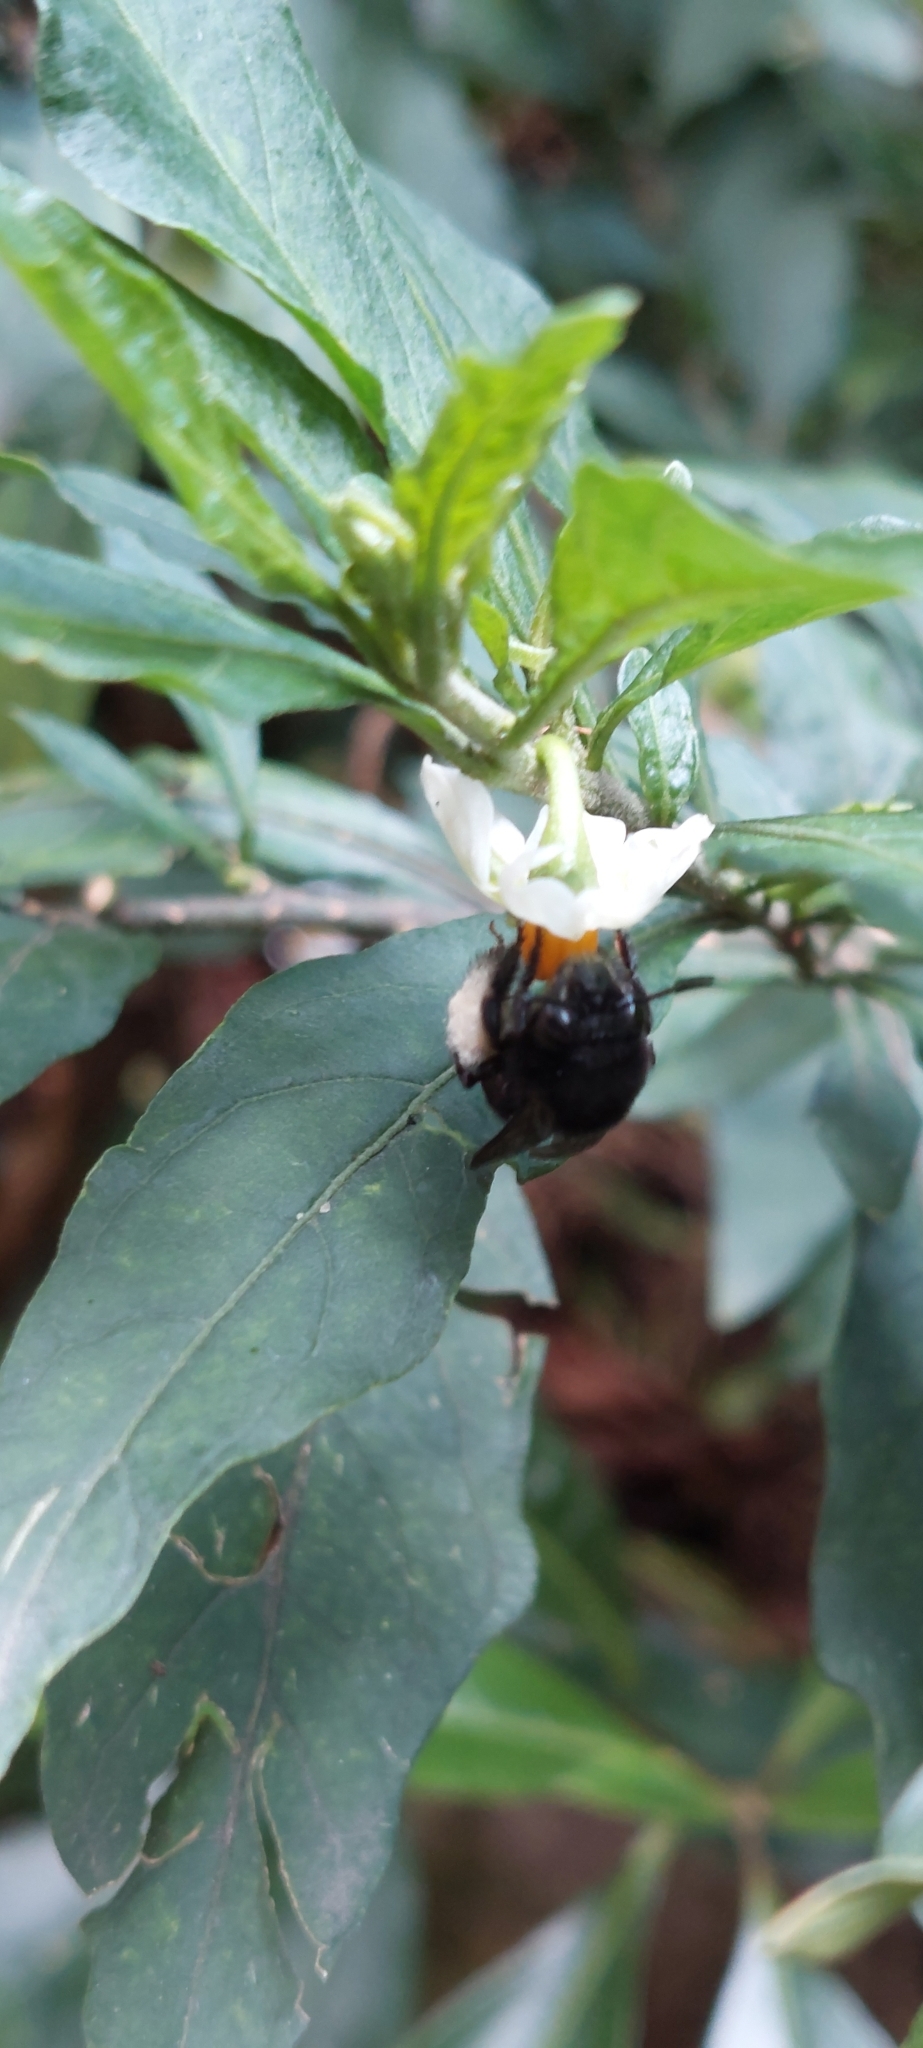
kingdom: Animalia
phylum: Arthropoda
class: Insecta
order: Hymenoptera
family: Apidae
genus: Thygater
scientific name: Thygater aethiops
